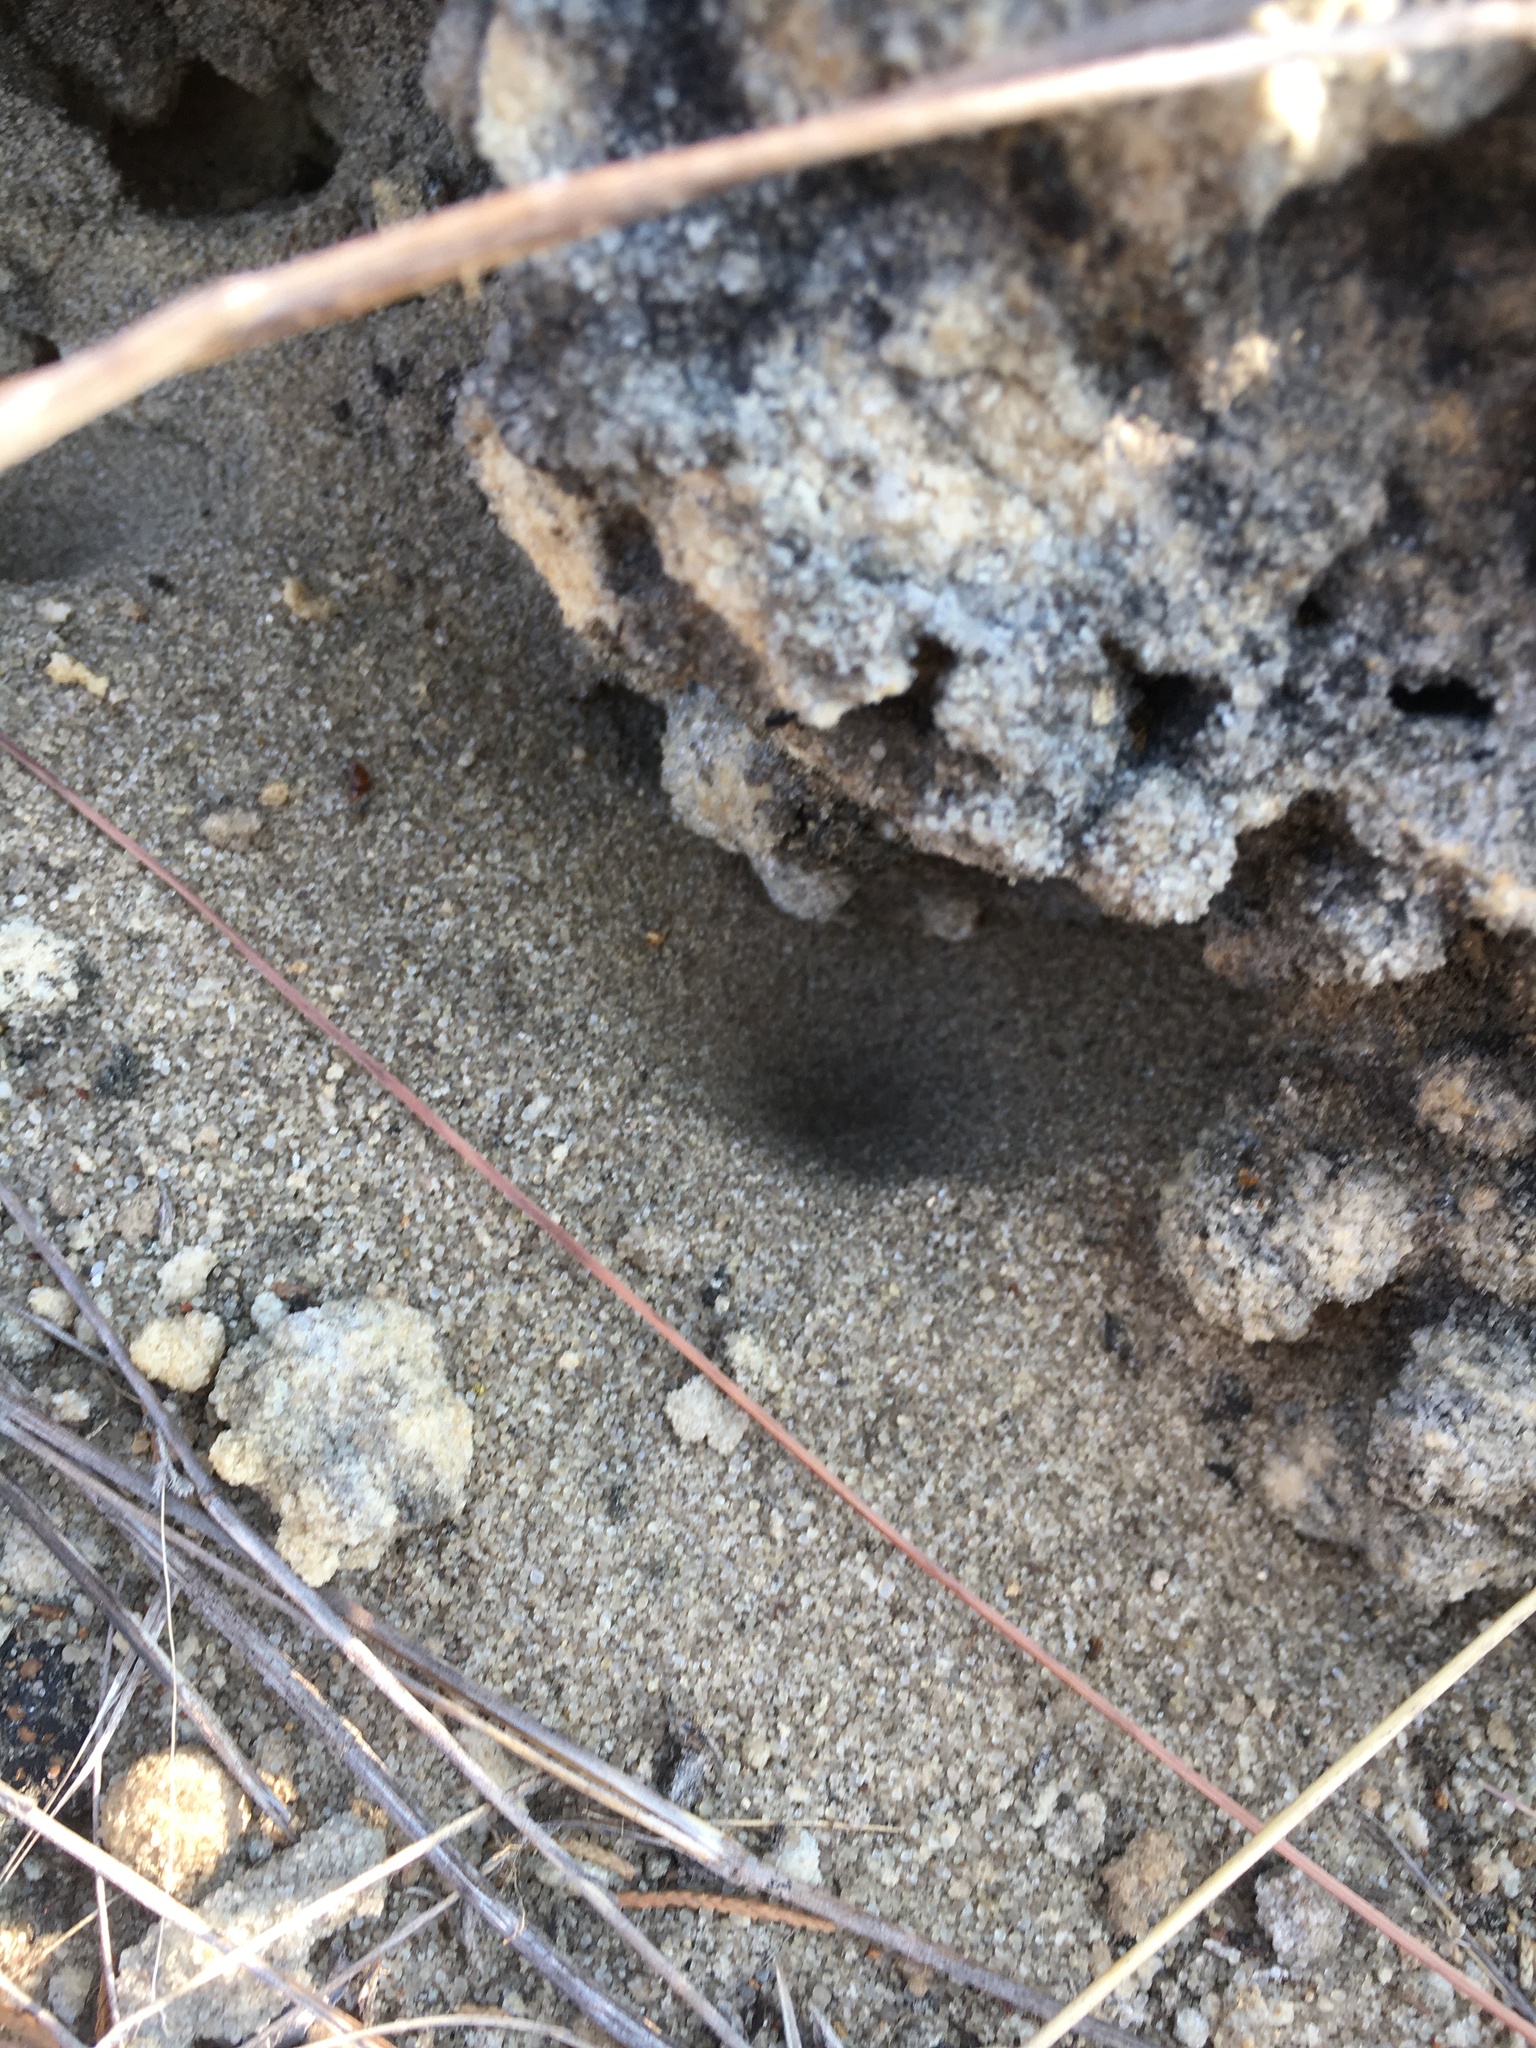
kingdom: Animalia
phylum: Arthropoda
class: Insecta
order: Neuroptera
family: Myrmeleontidae
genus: Myrmeleon
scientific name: Myrmeleon immaculatus
